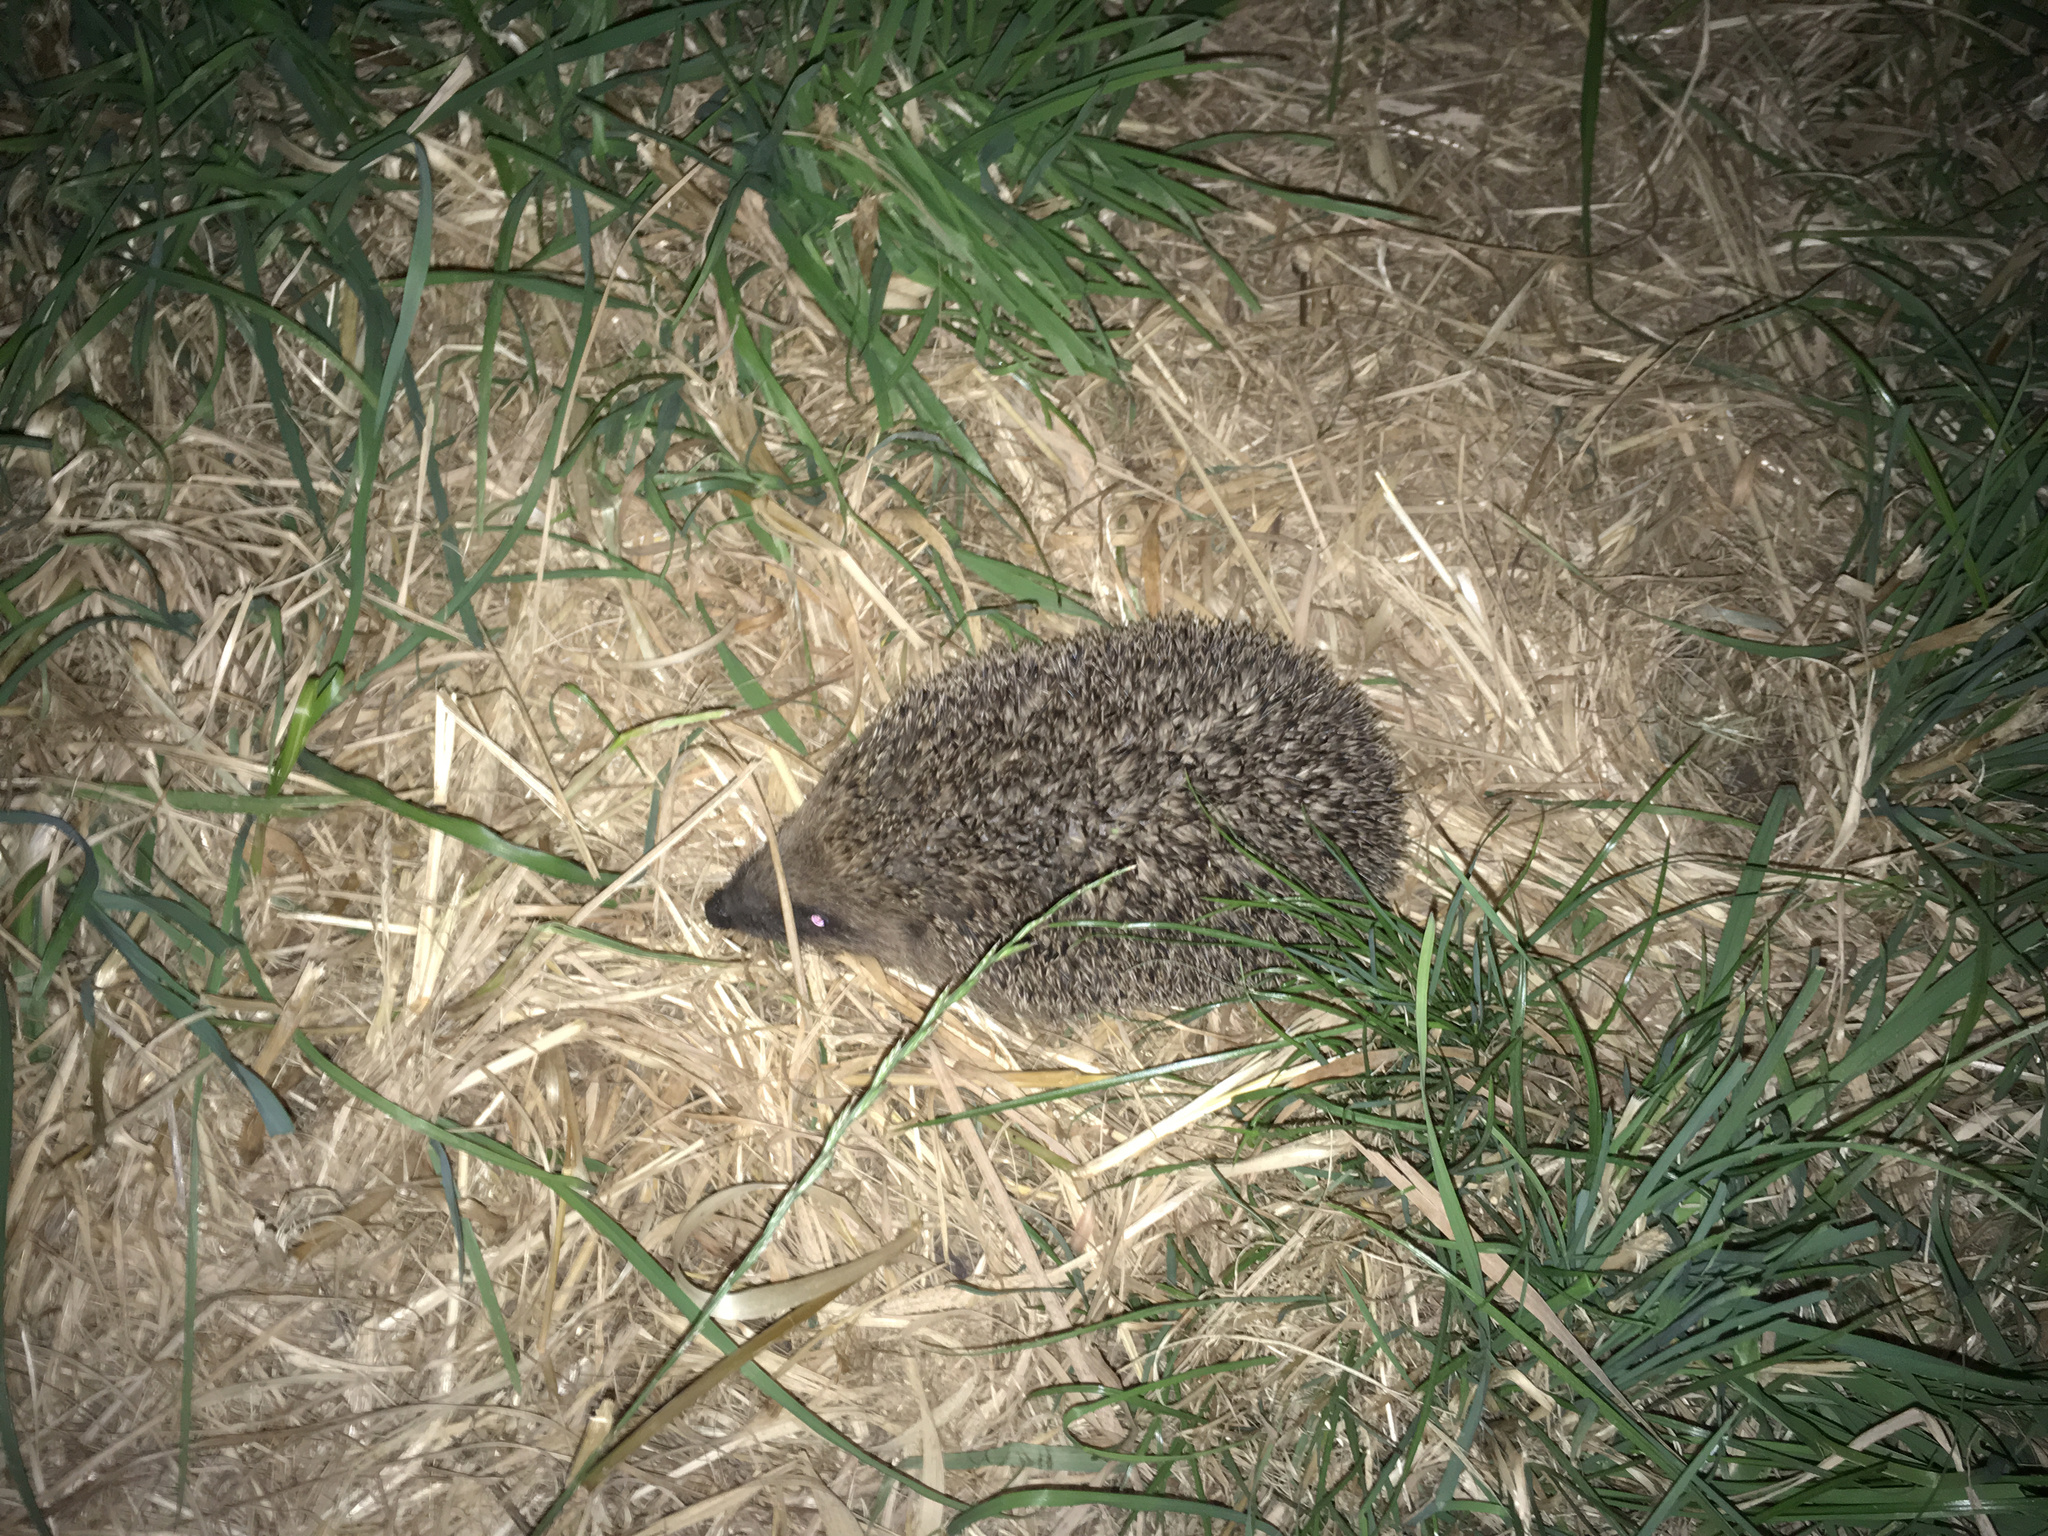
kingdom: Animalia
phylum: Chordata
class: Mammalia
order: Erinaceomorpha
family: Erinaceidae
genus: Erinaceus
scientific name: Erinaceus europaeus
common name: West european hedgehog
